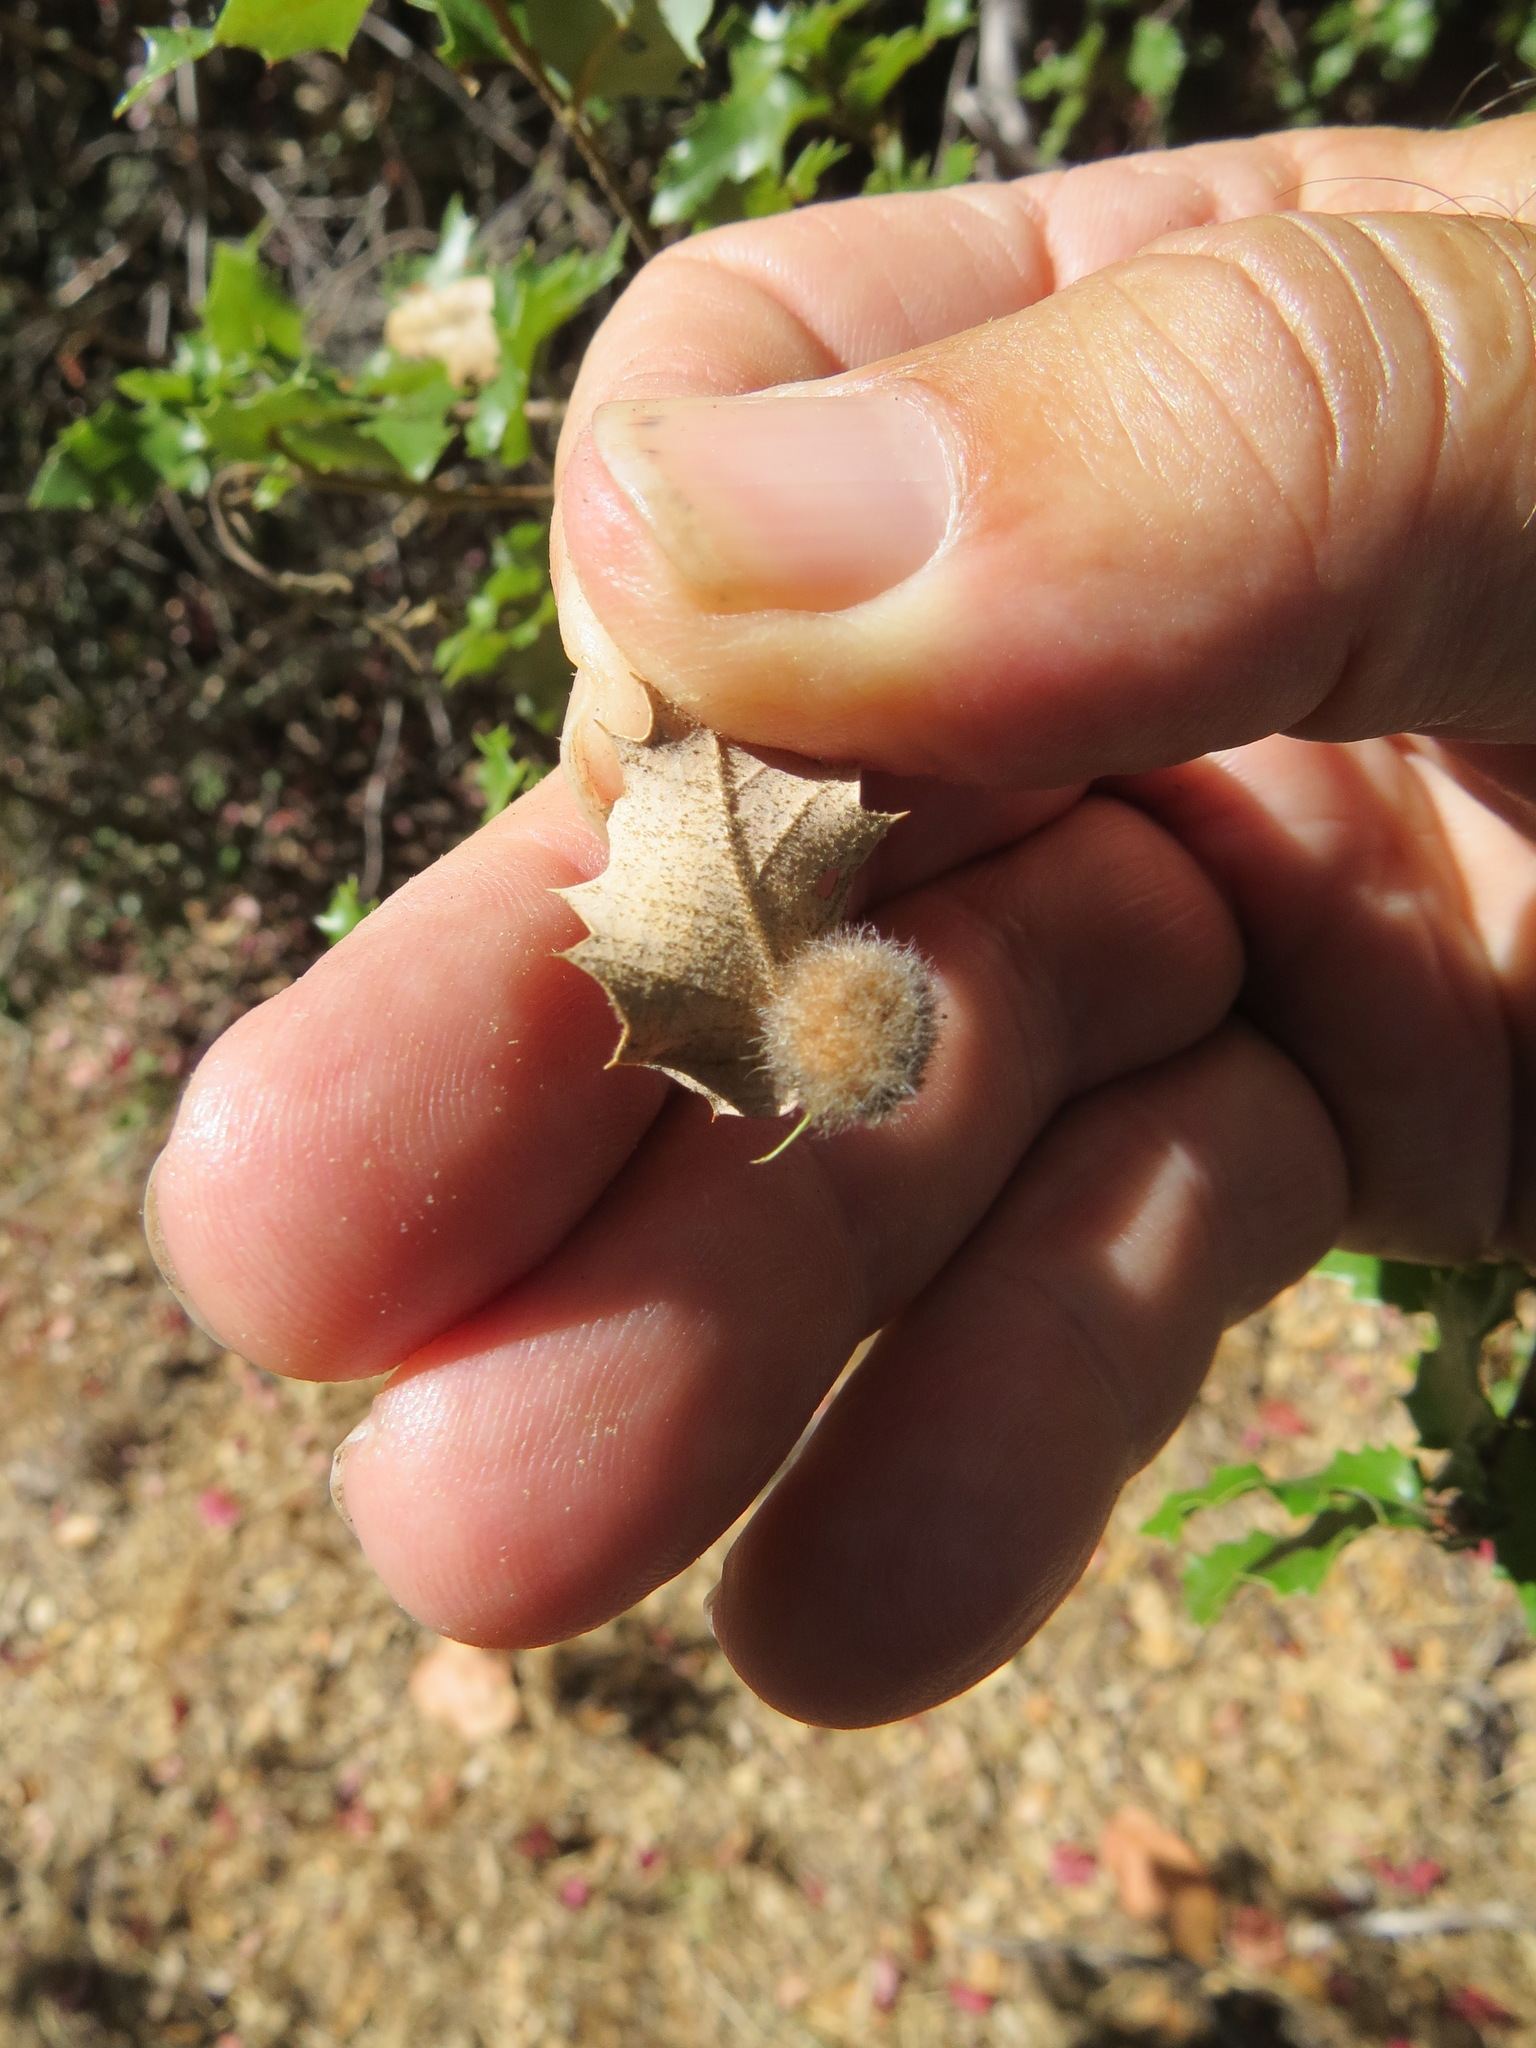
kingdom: Animalia
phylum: Arthropoda
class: Insecta
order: Hymenoptera
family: Cynipidae
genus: Disholandricus
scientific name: Disholandricus
